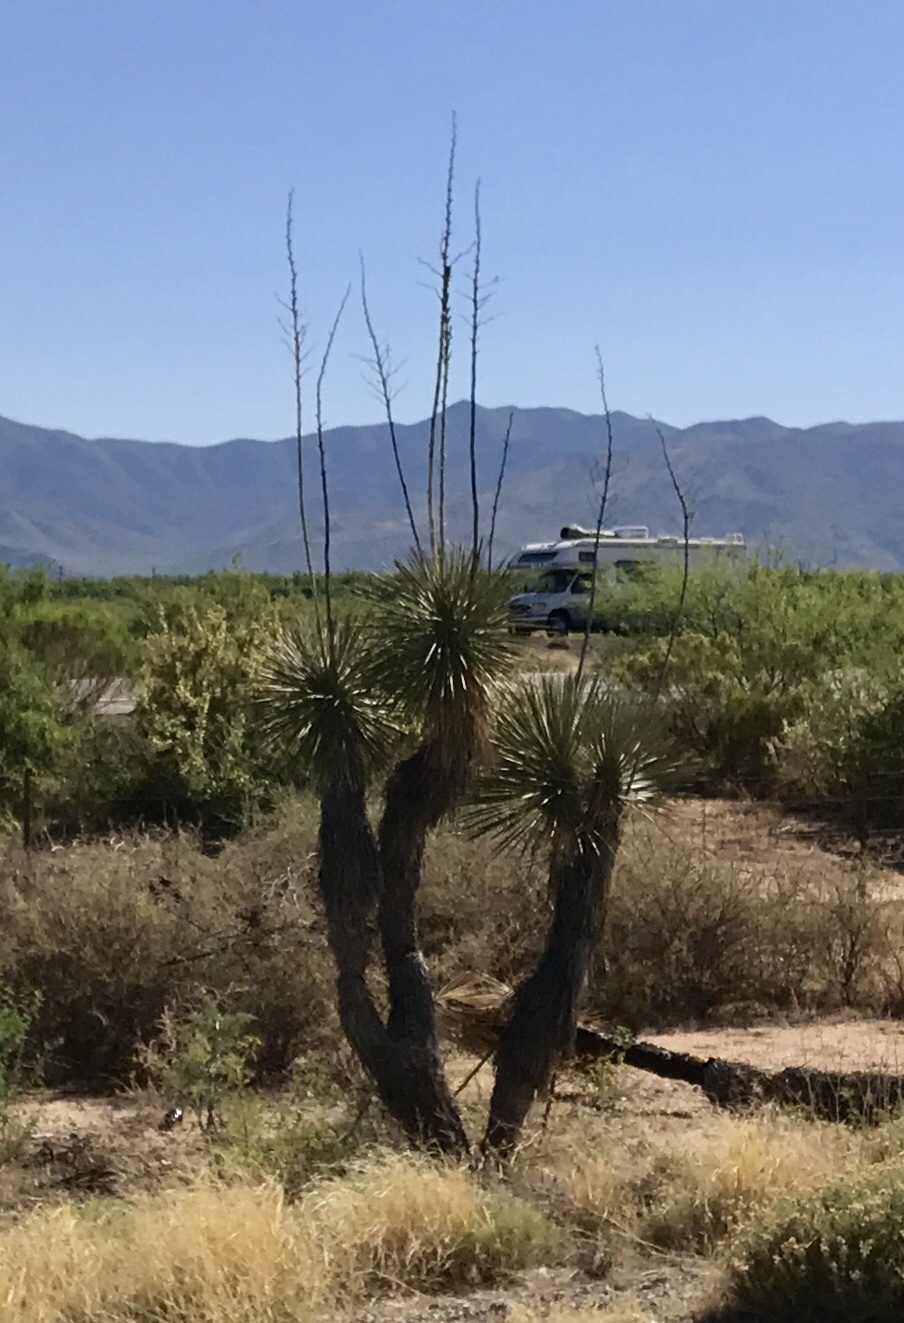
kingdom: Plantae
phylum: Tracheophyta
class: Liliopsida
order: Asparagales
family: Asparagaceae
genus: Yucca
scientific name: Yucca elata
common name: Palmella
